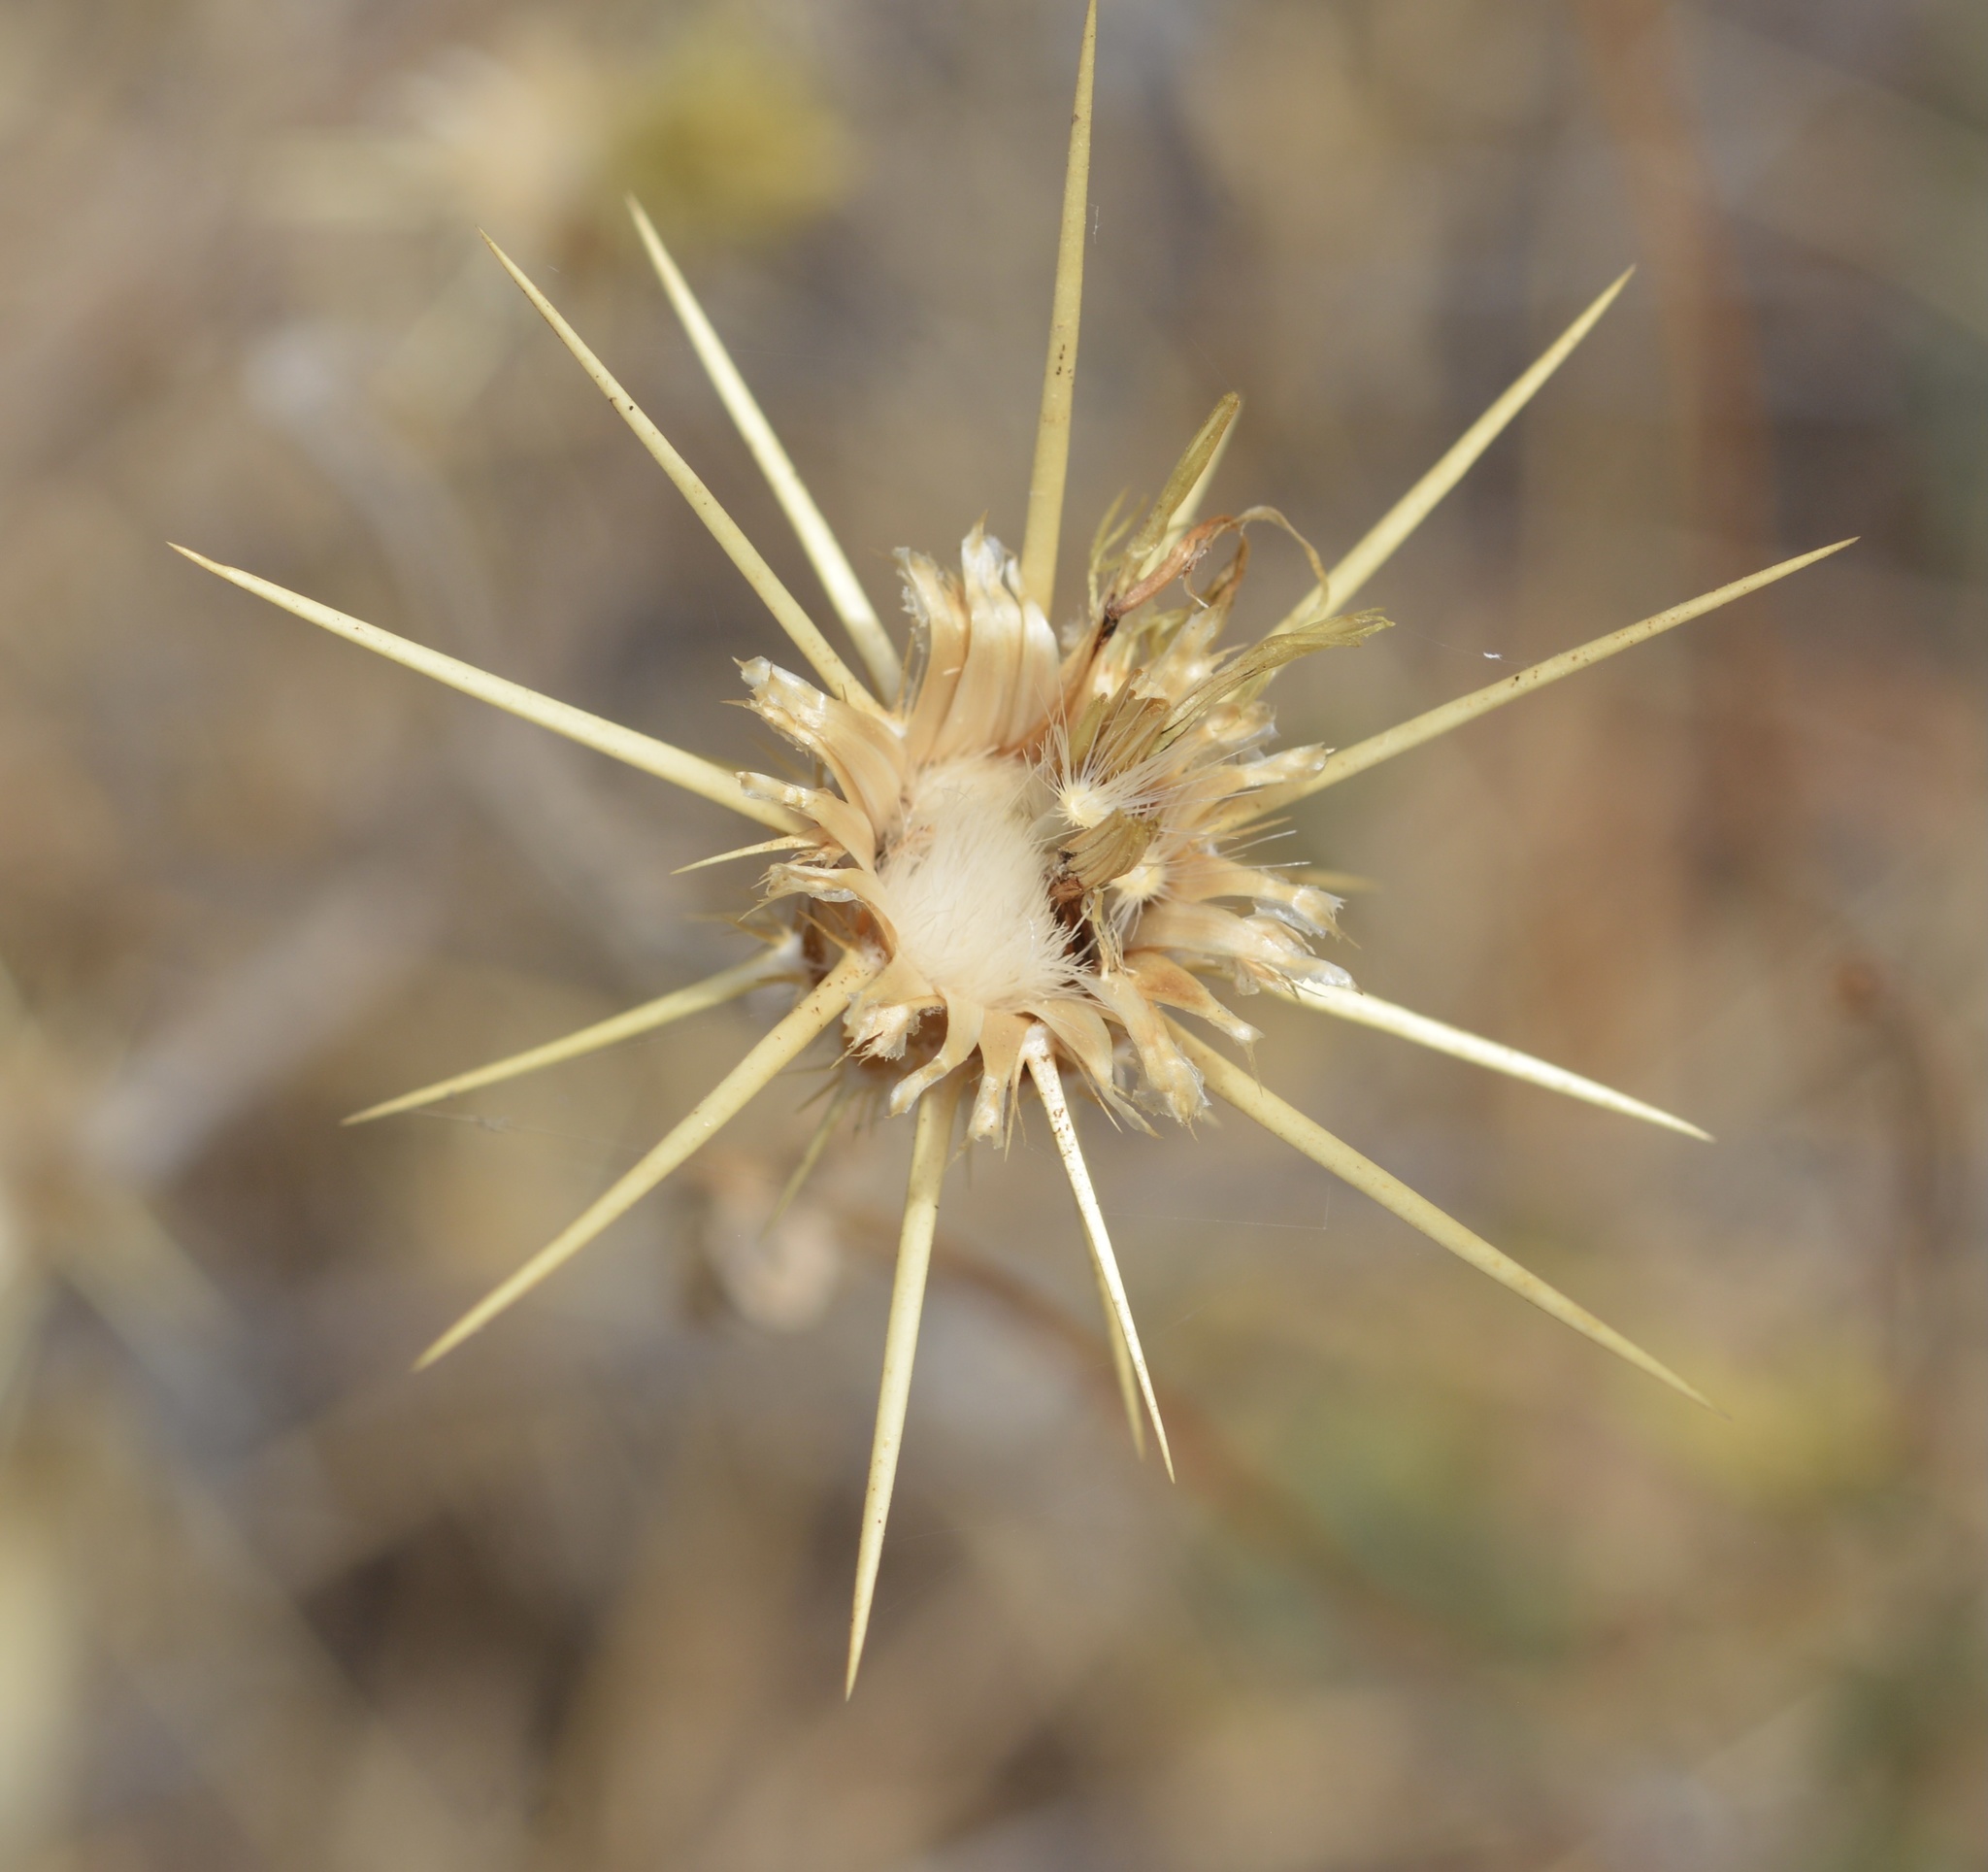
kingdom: Plantae
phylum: Tracheophyta
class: Magnoliopsida
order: Asterales
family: Asteraceae
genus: Centaurea
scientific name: Centaurea solstitialis
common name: Yellow star-thistle
